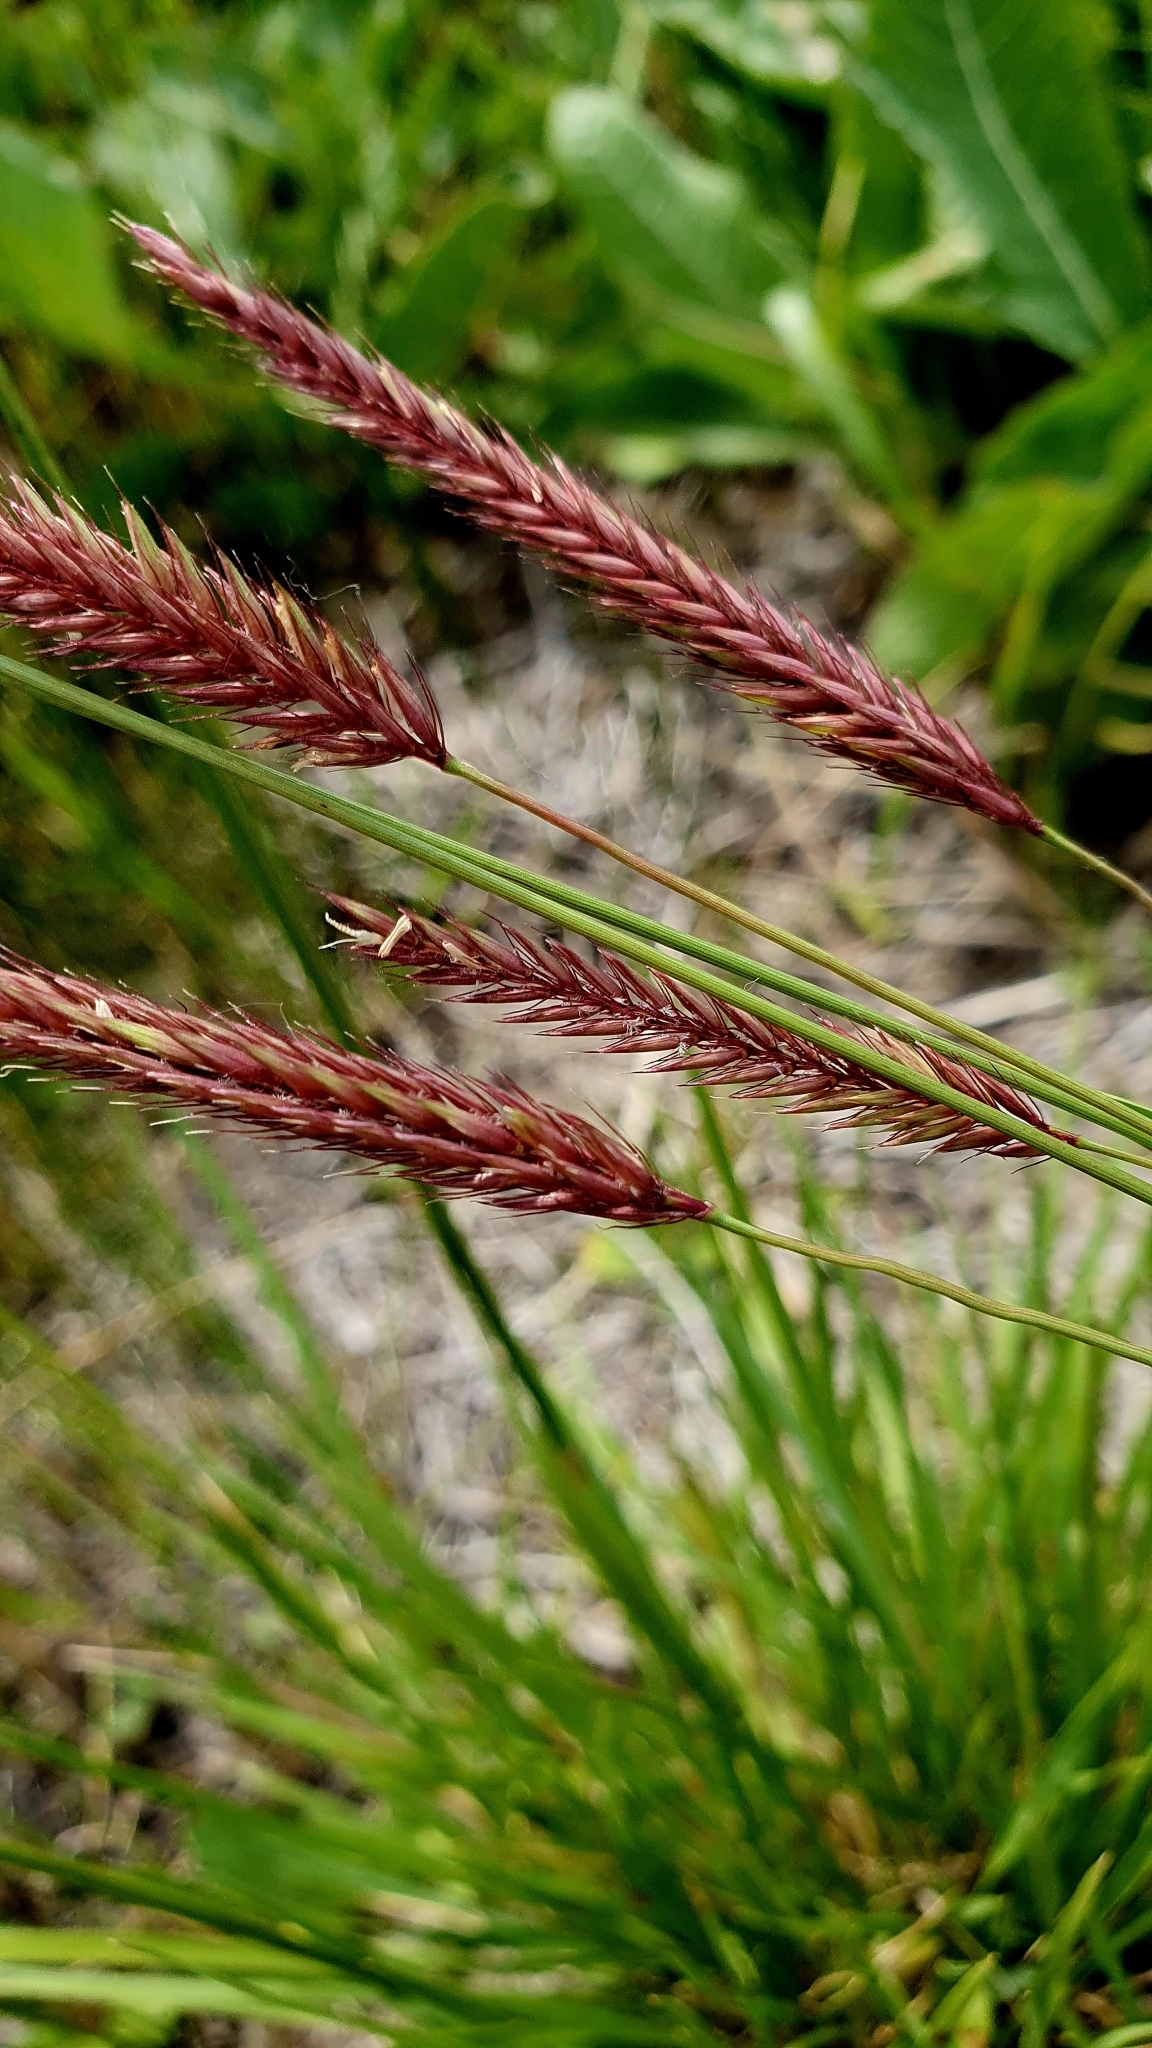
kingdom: Plantae
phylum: Tracheophyta
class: Liliopsida
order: Poales
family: Poaceae
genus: Hordeum
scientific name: Hordeum brevisubulatum
